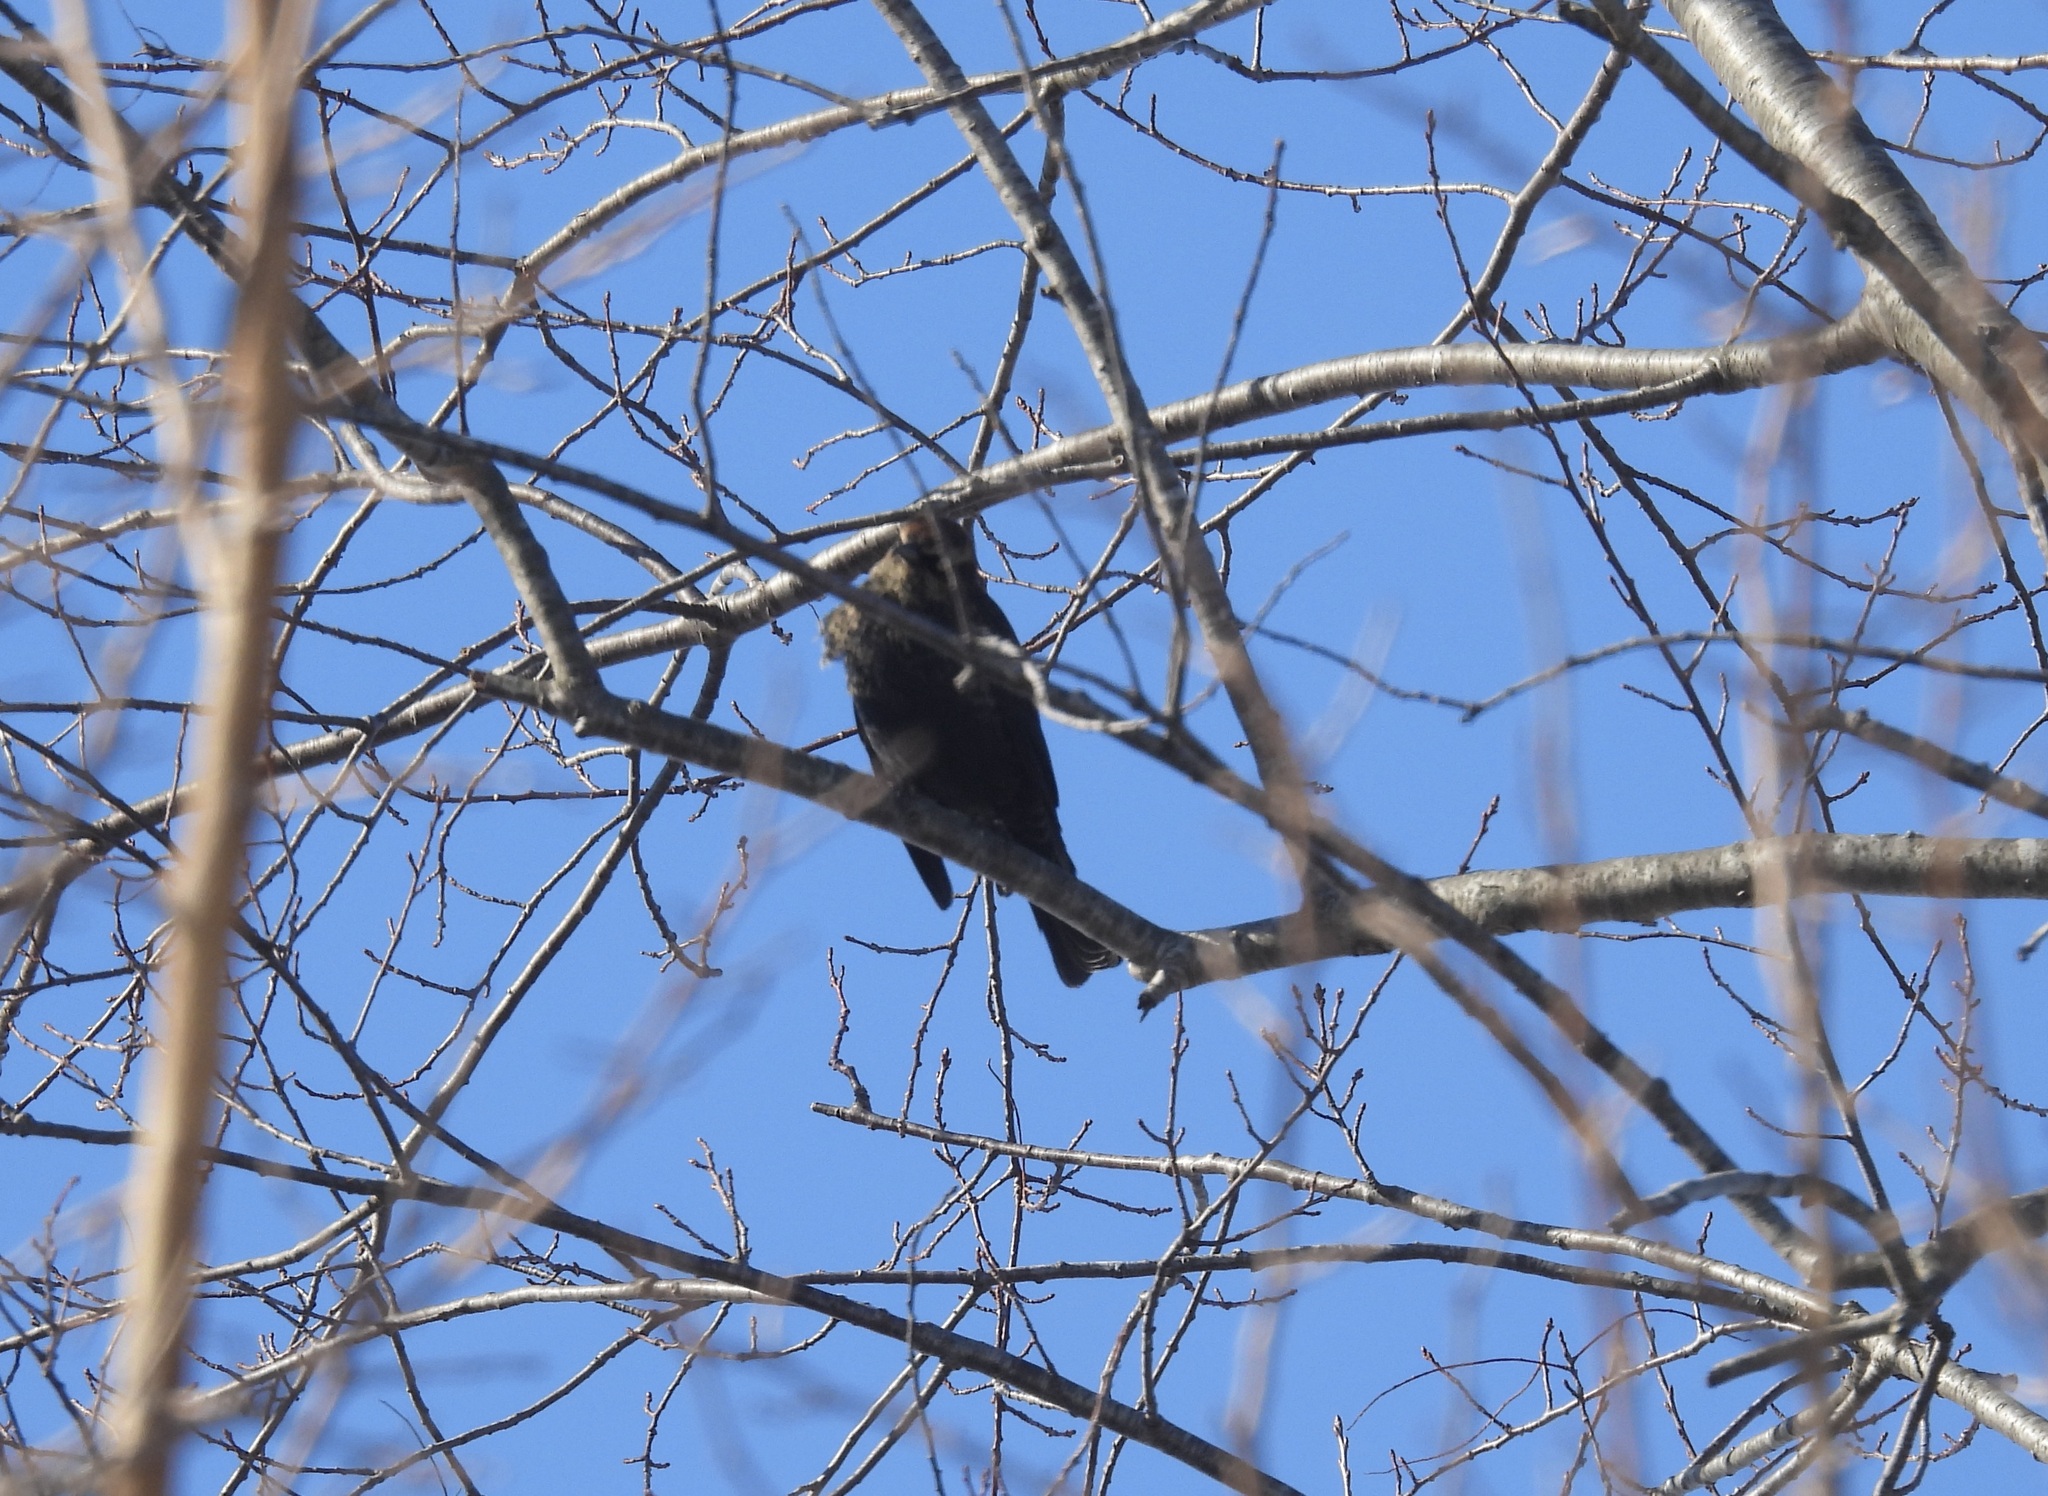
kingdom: Animalia
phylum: Chordata
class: Aves
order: Passeriformes
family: Icteridae
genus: Euphagus
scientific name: Euphagus carolinus
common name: Rusty blackbird
